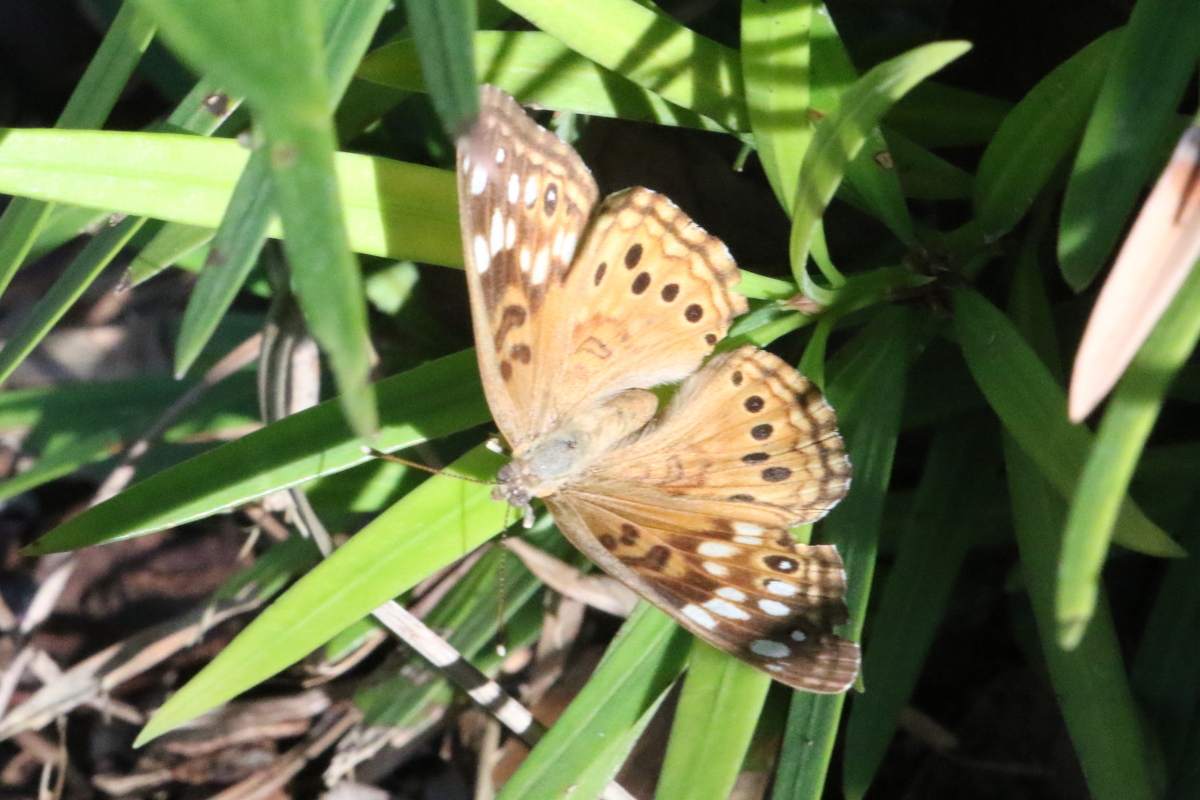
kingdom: Animalia
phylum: Arthropoda
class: Insecta
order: Lepidoptera
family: Nymphalidae
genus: Asterocampa
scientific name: Asterocampa celtis
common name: Hackberry emperor
